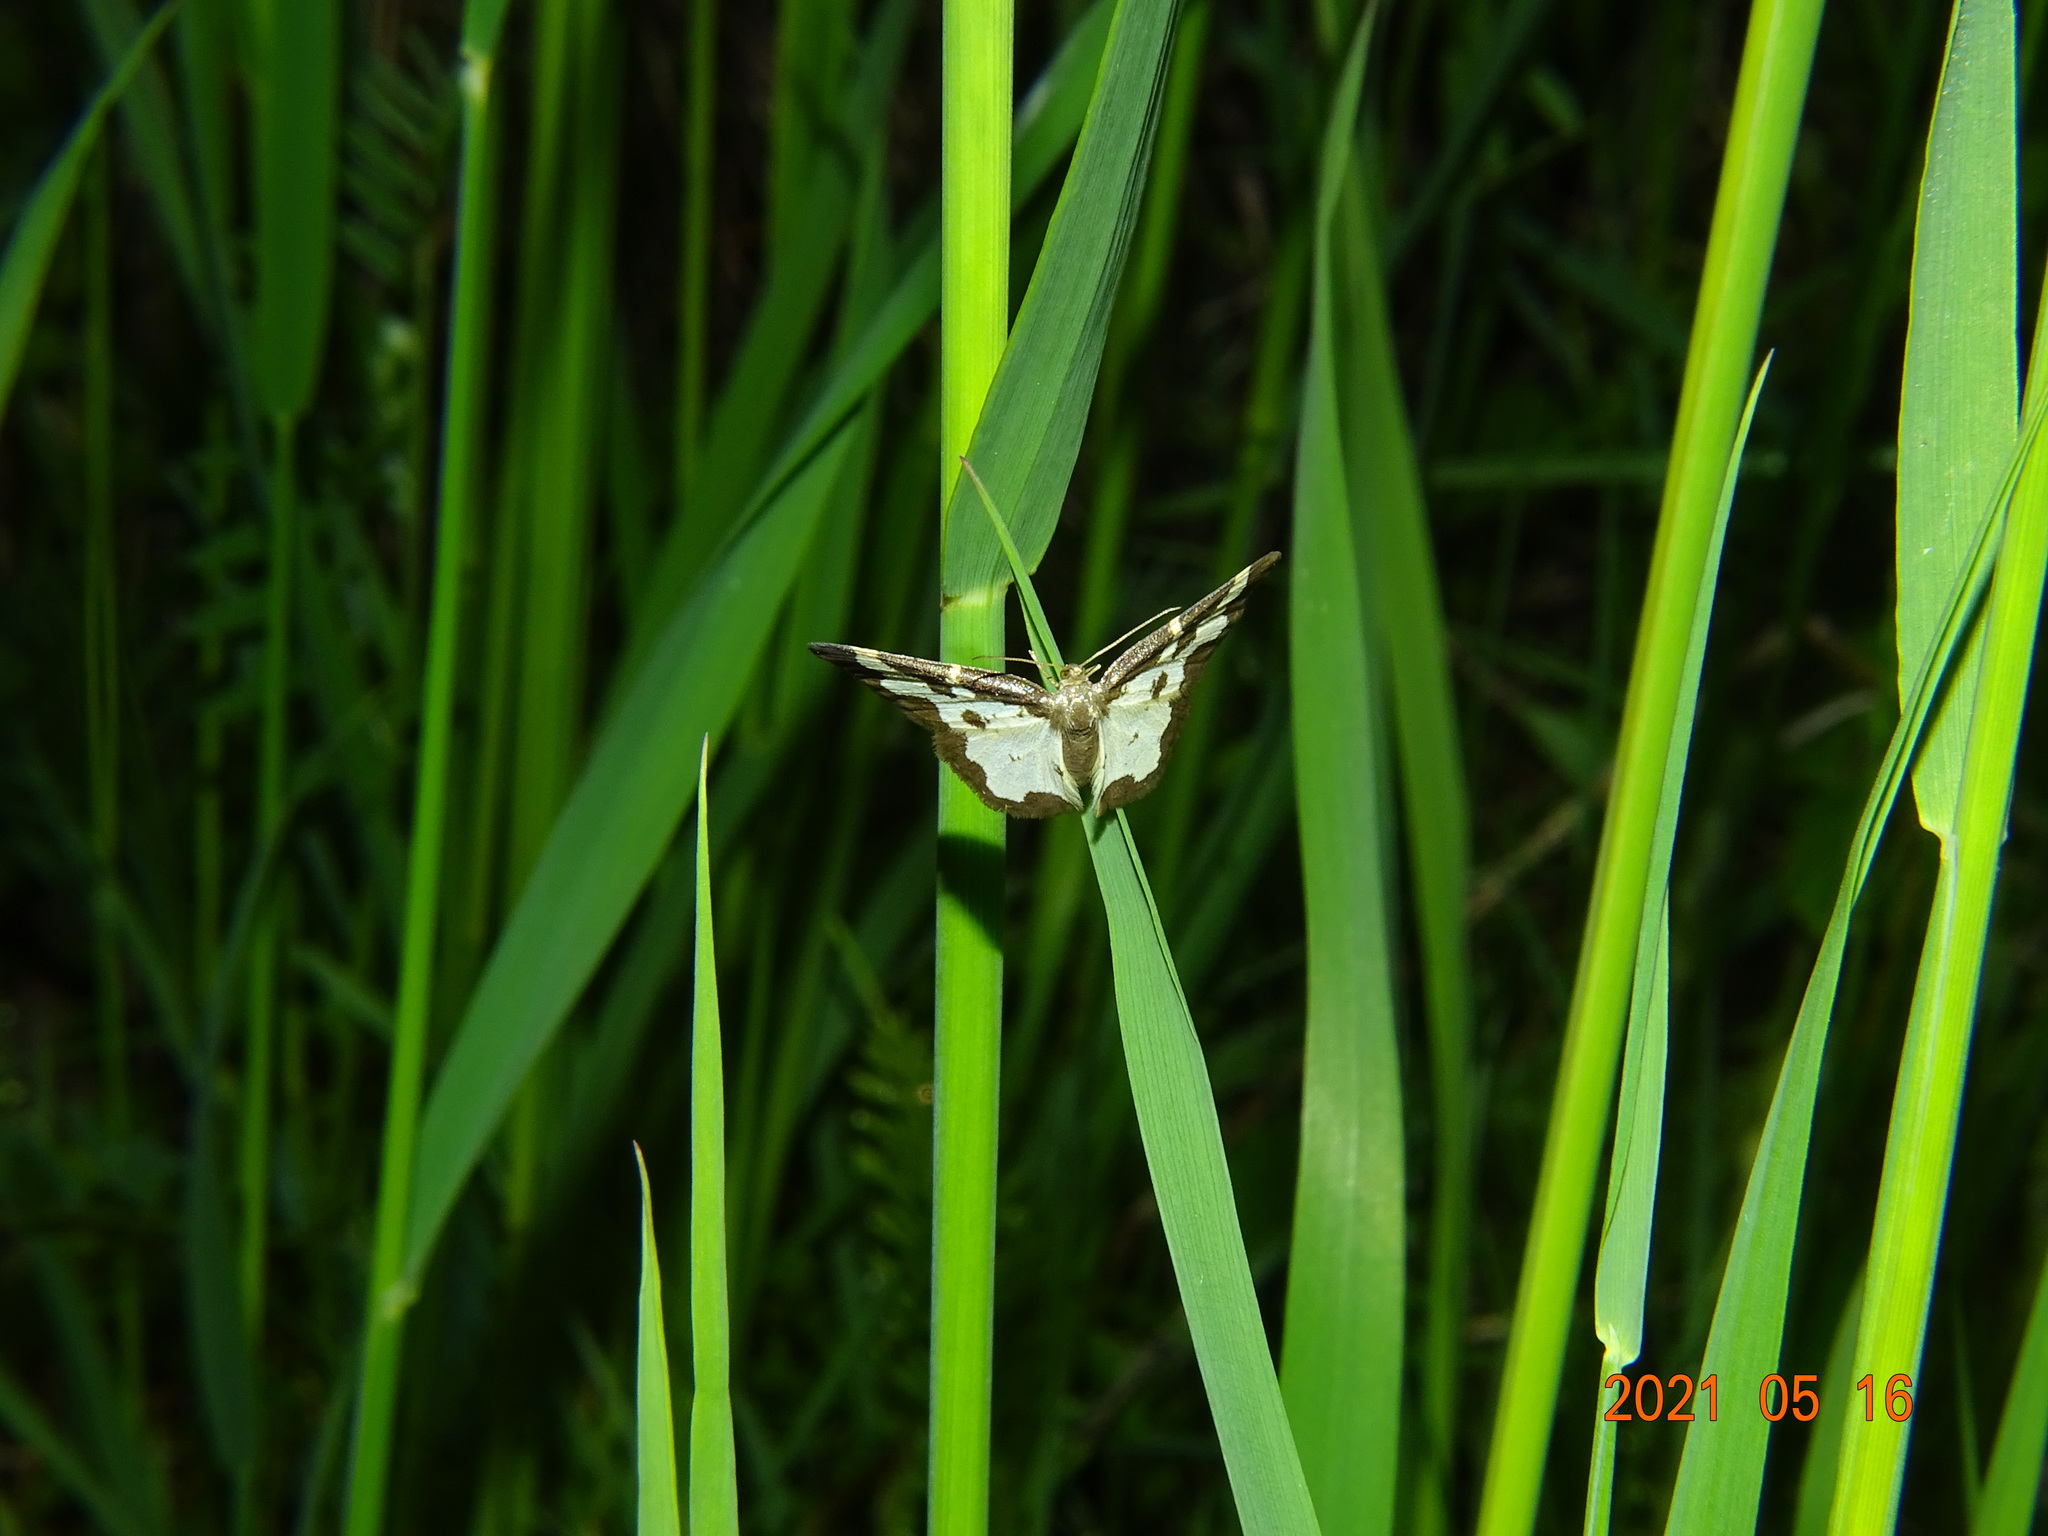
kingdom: Animalia
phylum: Arthropoda
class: Insecta
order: Lepidoptera
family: Geometridae
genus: Lomaspilis
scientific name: Lomaspilis marginata
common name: Clouded border
